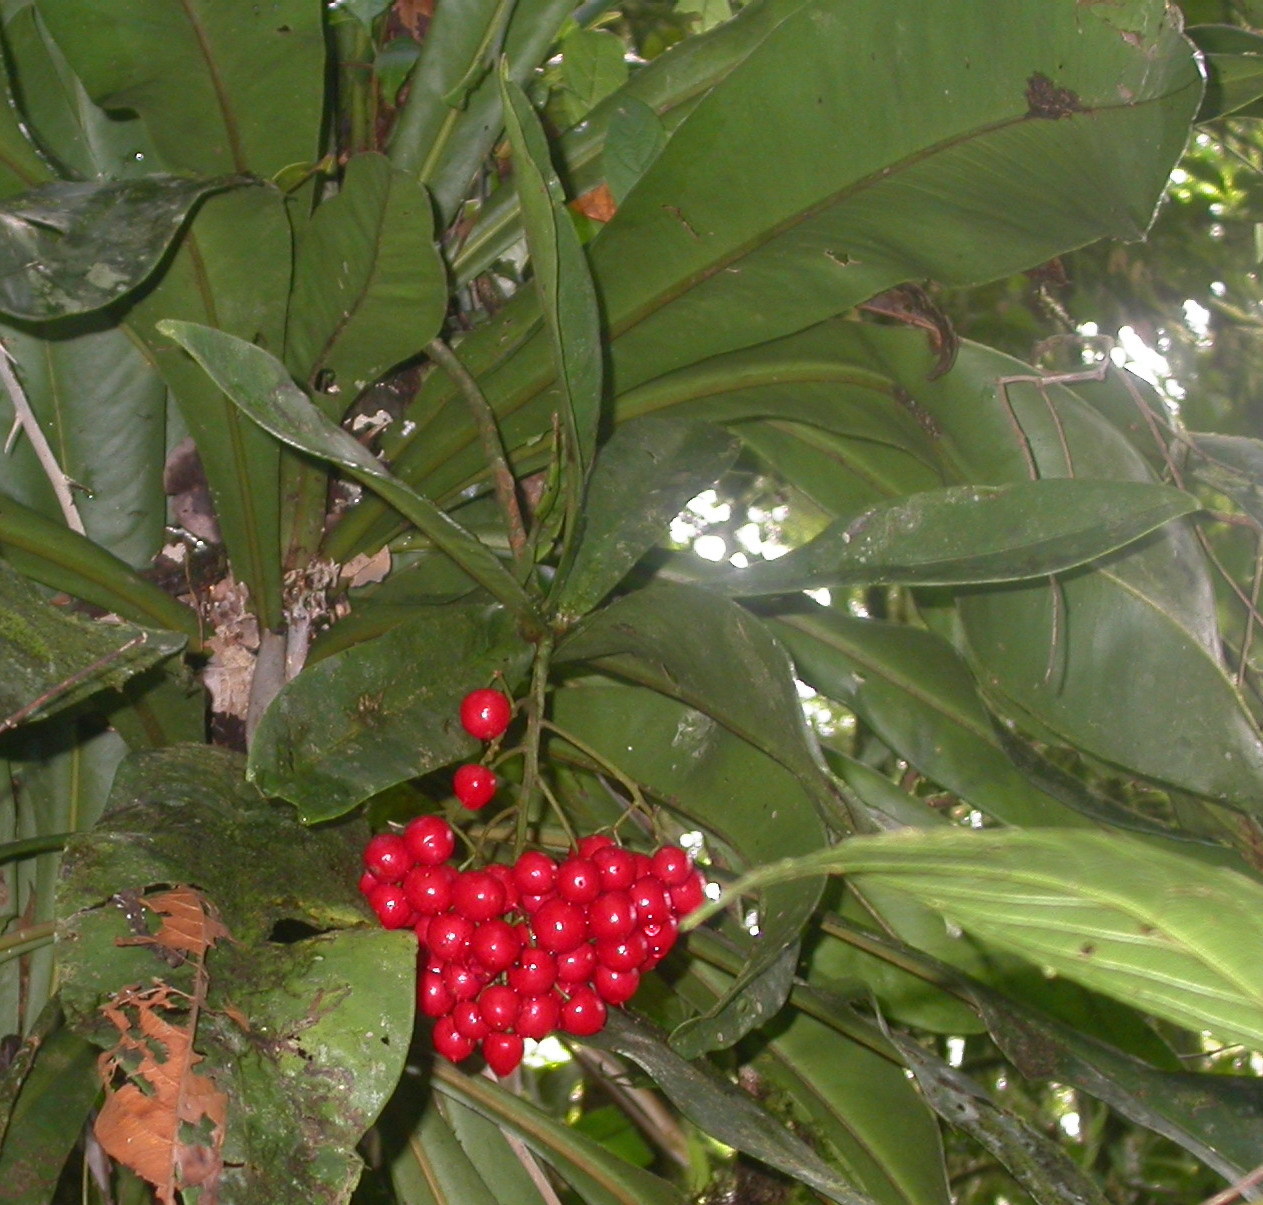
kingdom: Plantae
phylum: Tracheophyta
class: Magnoliopsida
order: Ericales
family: Primulaceae
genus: Hymenandra
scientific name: Hymenandra pittieri
